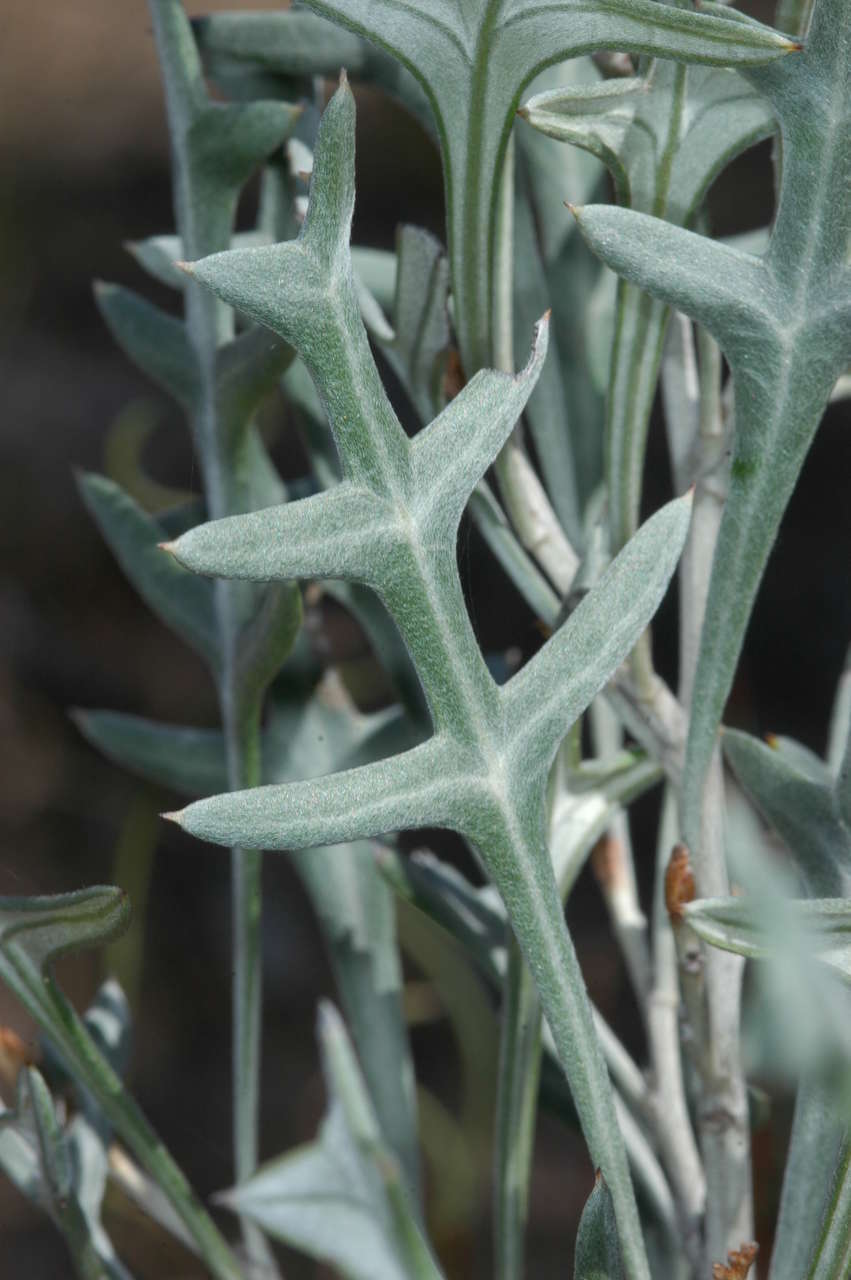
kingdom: Plantae
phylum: Tracheophyta
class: Magnoliopsida
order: Proteales
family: Proteaceae
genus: Grevillea
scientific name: Grevillea ilicifolia
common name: Holly grevillea
